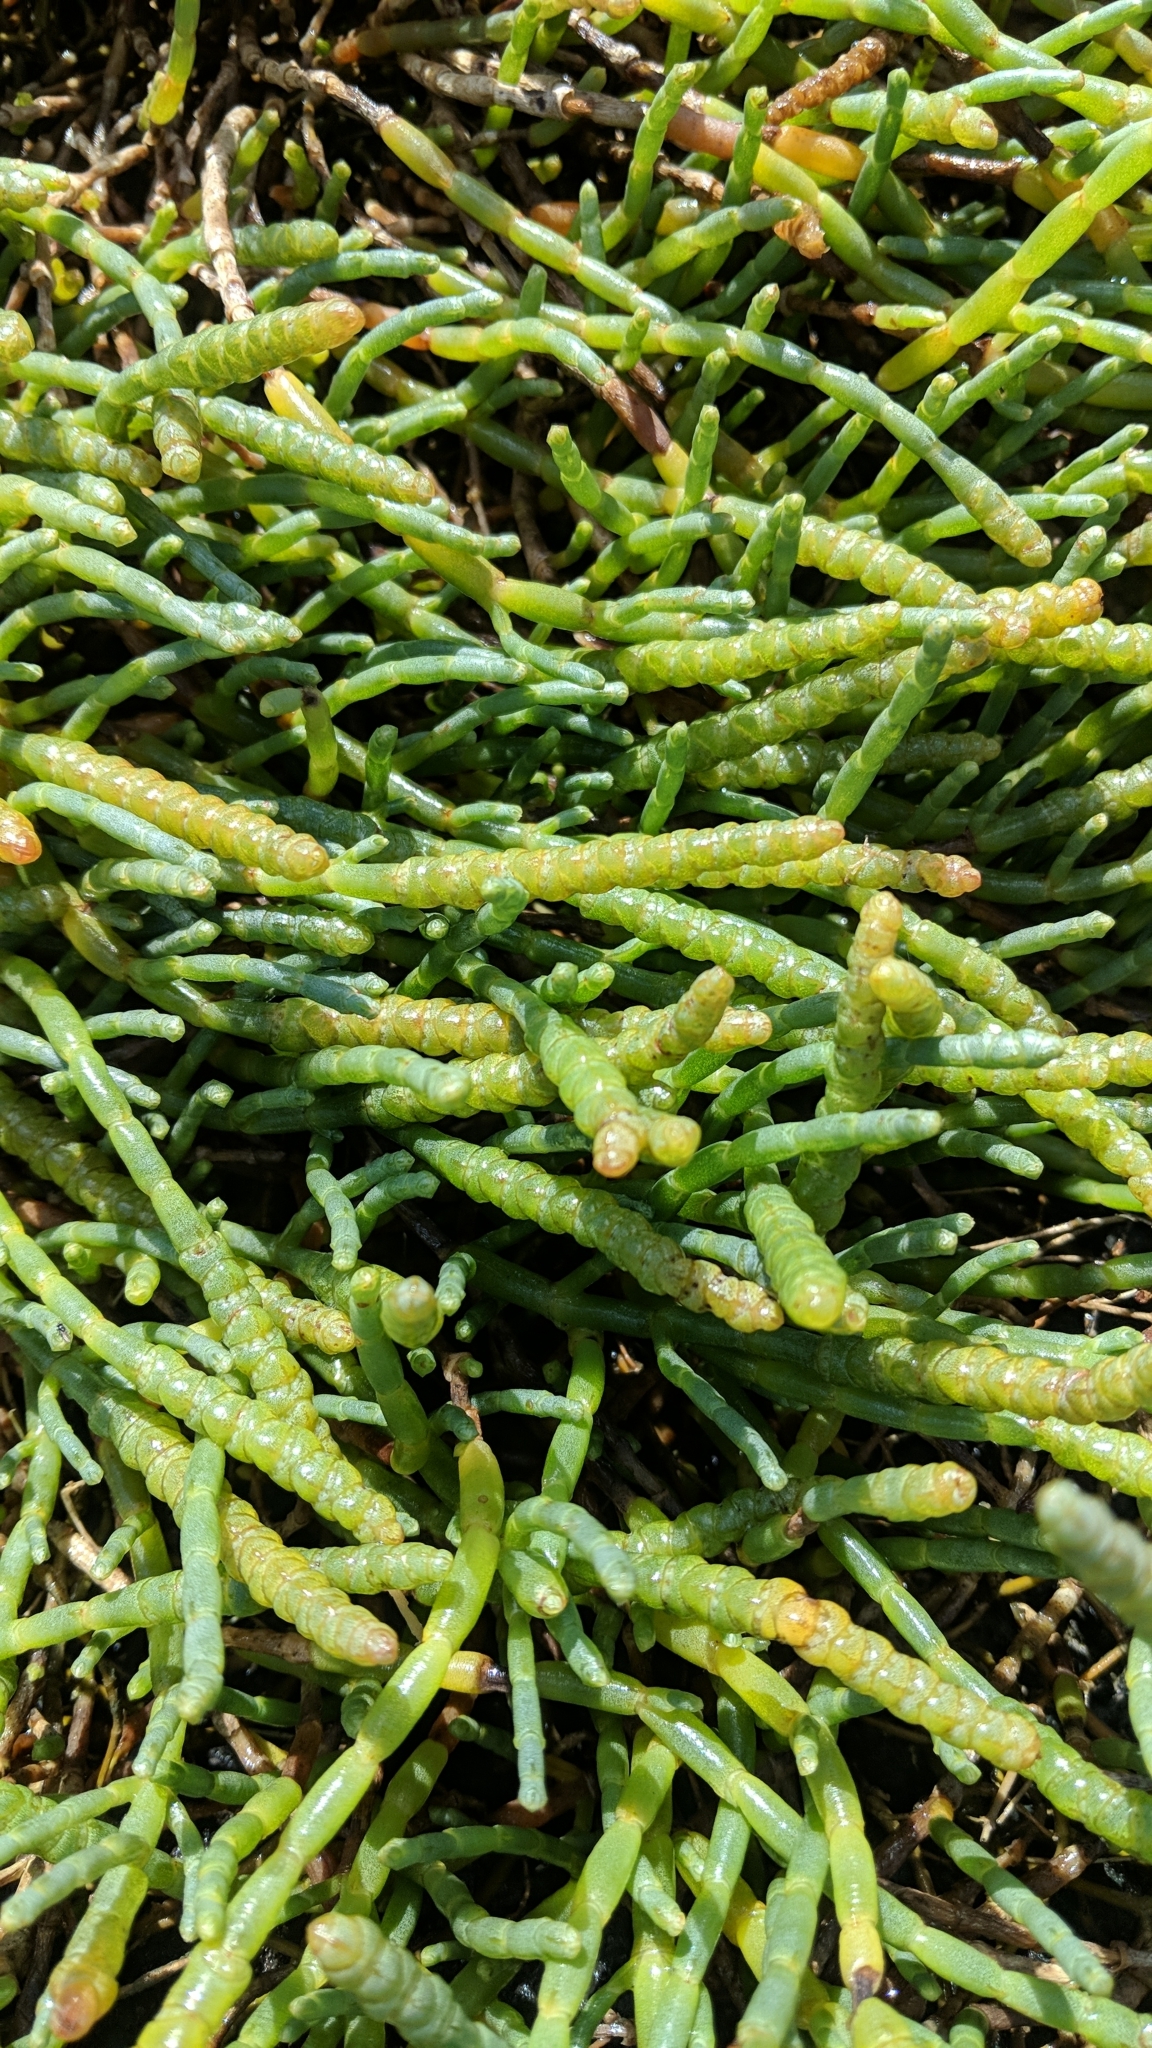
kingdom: Plantae
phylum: Tracheophyta
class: Magnoliopsida
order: Caryophyllales
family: Amaranthaceae
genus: Salicornia
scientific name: Salicornia quinqueflora
